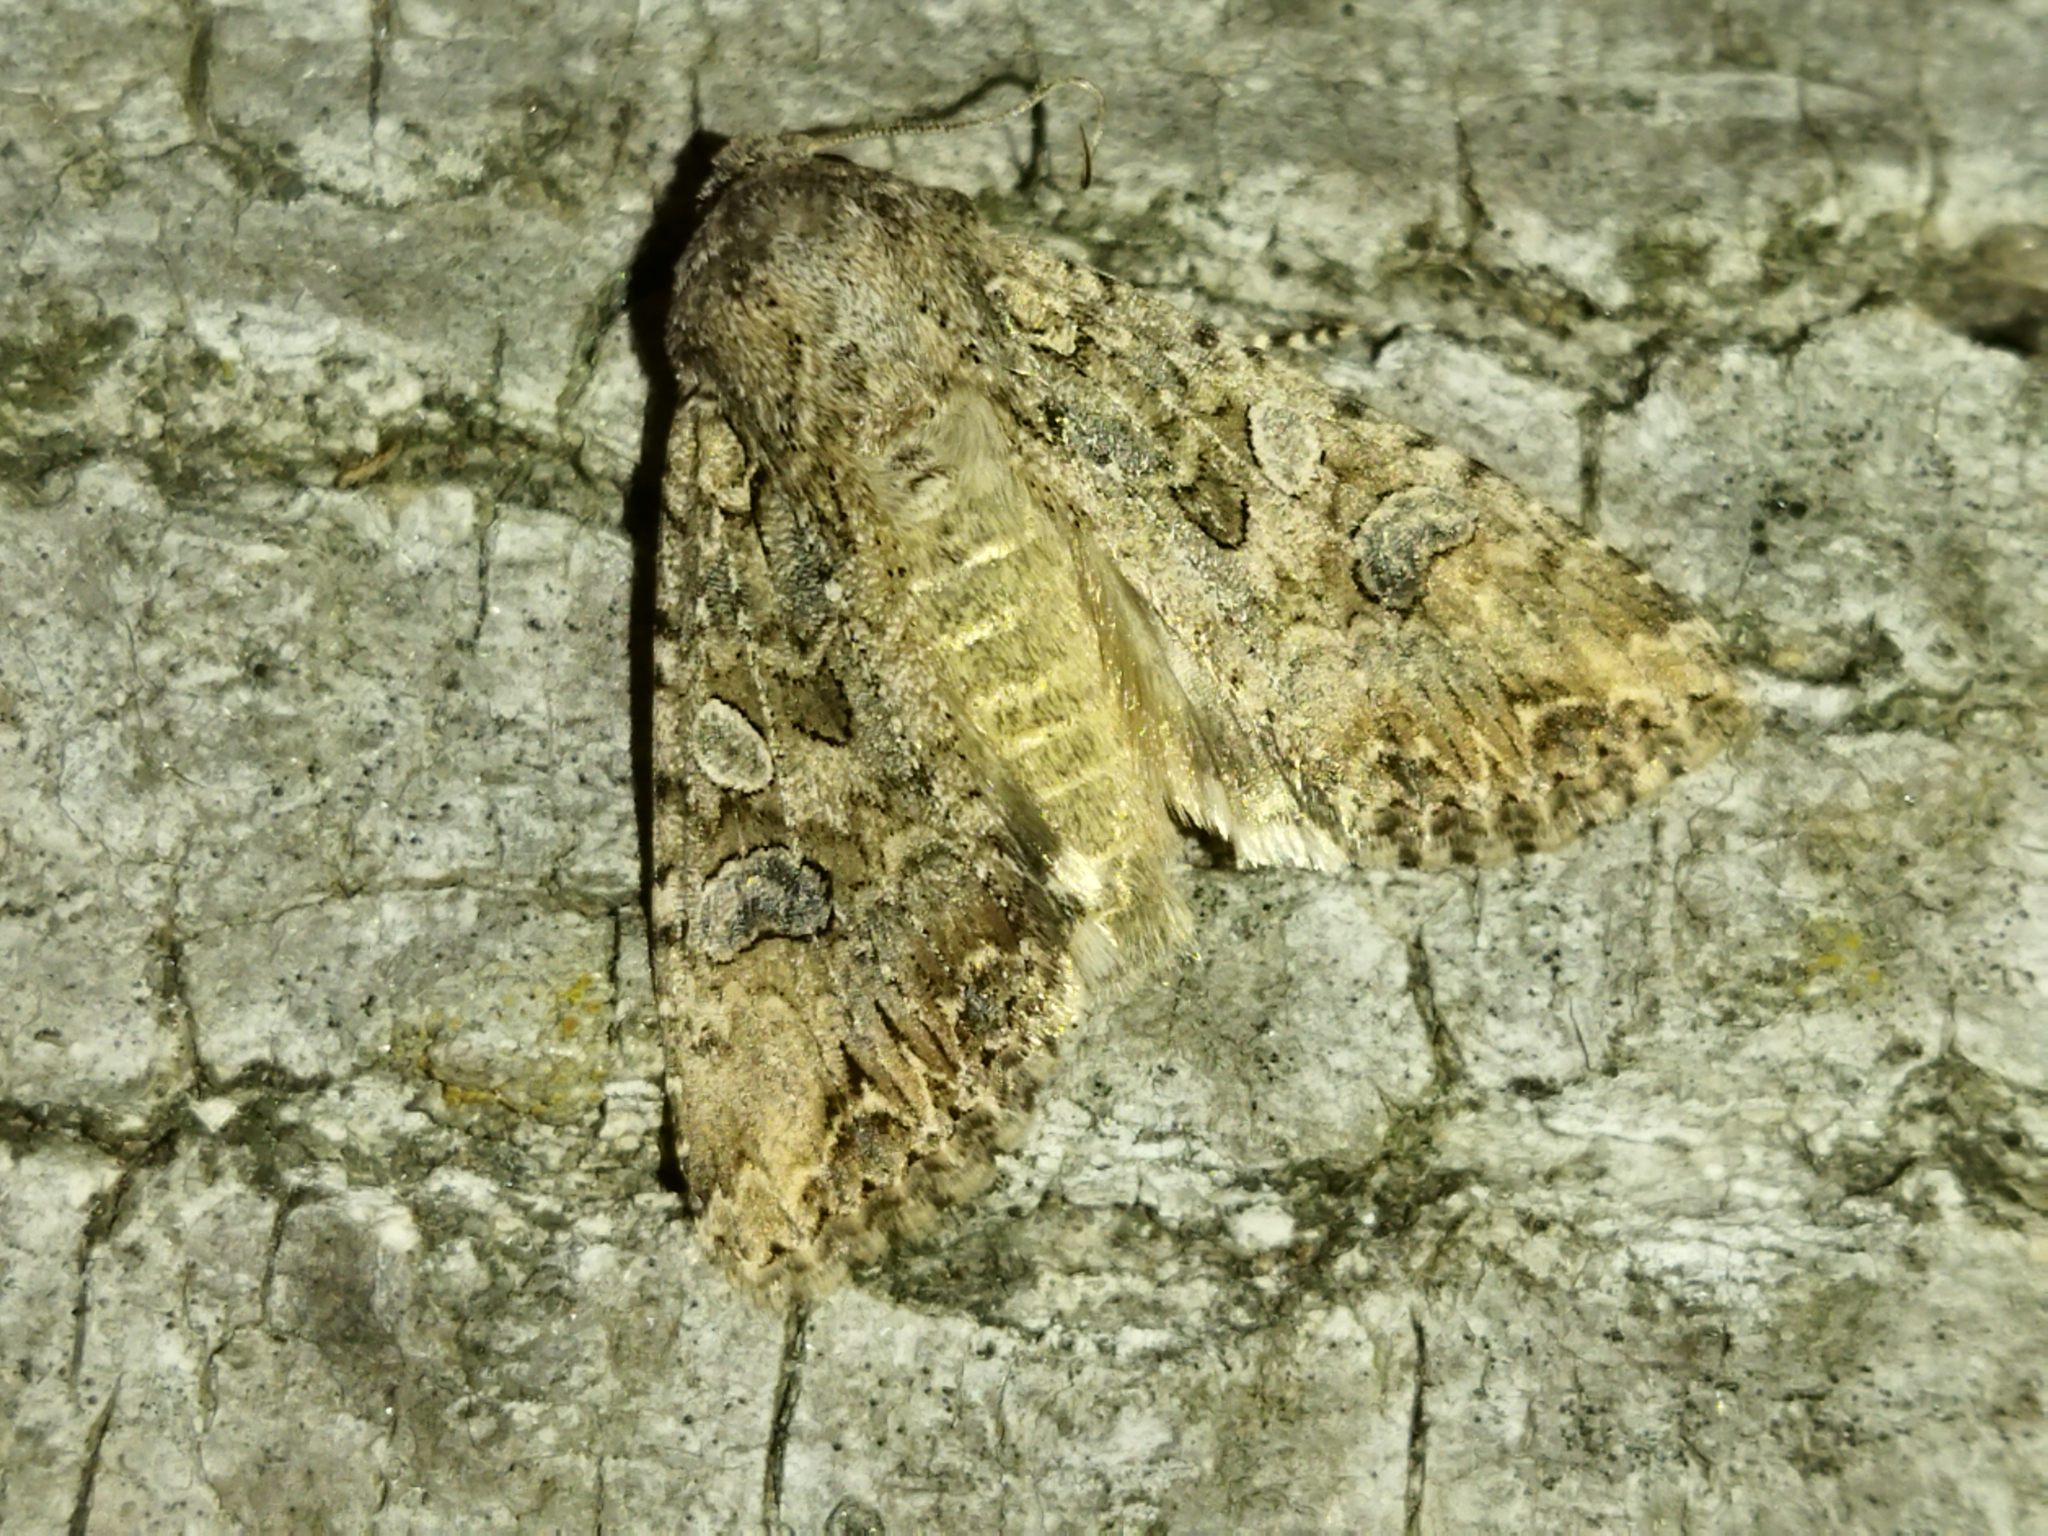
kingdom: Animalia
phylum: Arthropoda
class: Insecta
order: Lepidoptera
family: Noctuidae
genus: Anarta
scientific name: Anarta trifolii
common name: Clover cutworm moth
